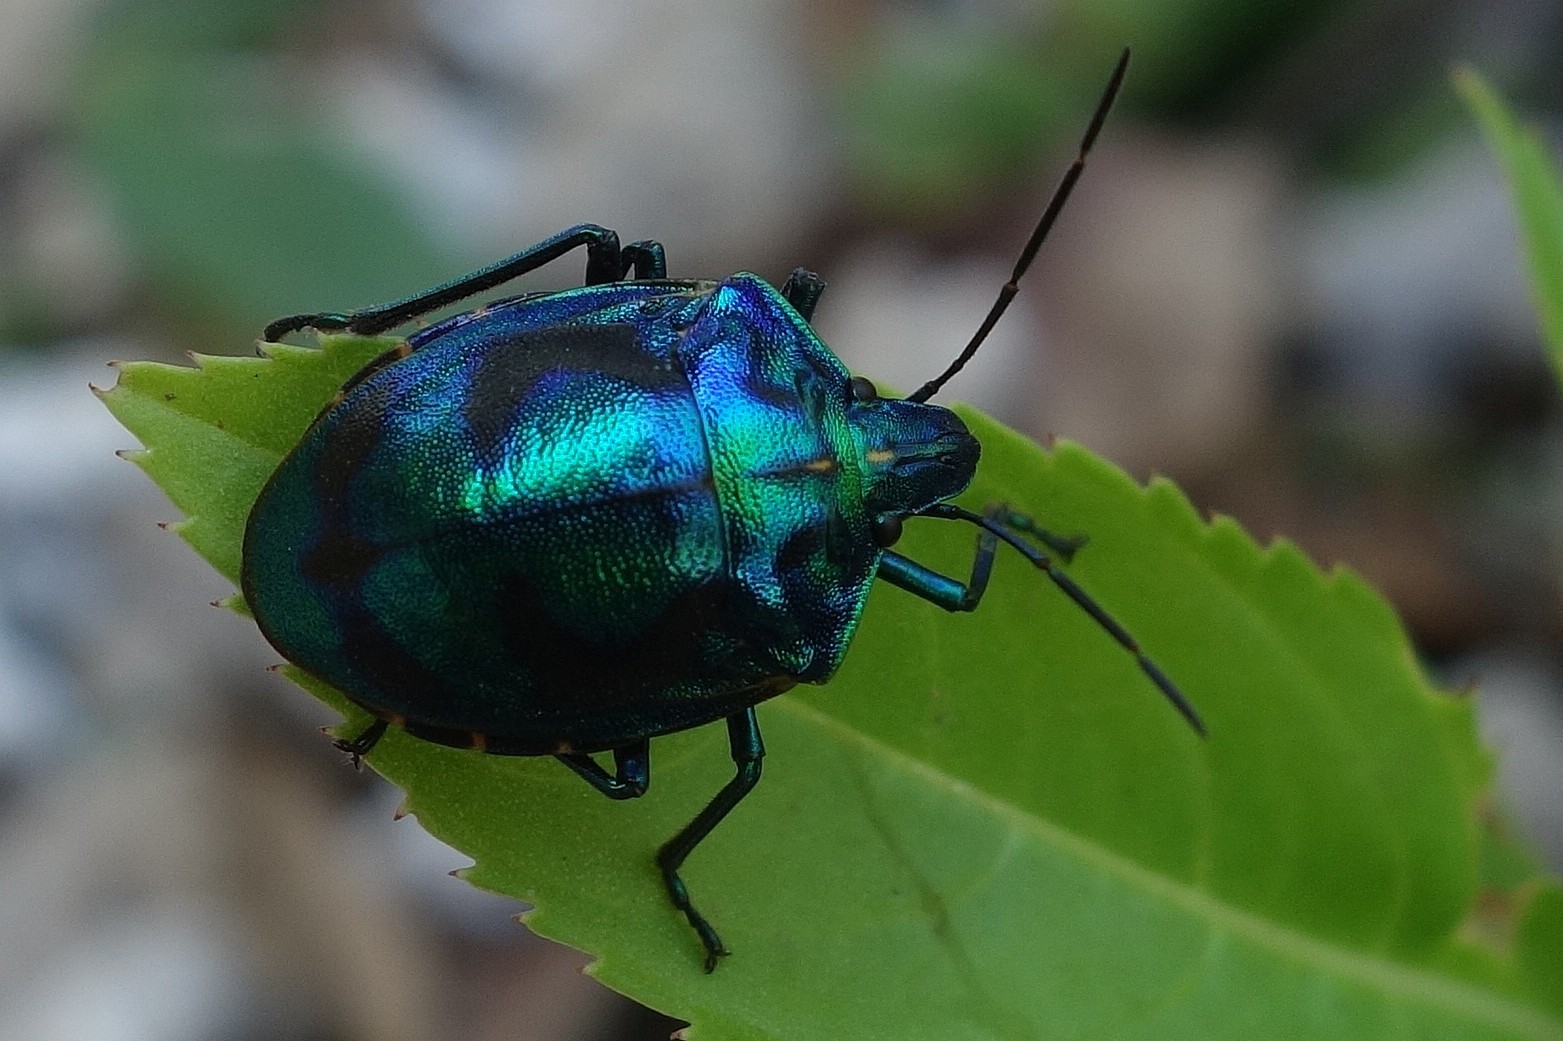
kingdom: Animalia
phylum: Arthropoda
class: Insecta
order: Hemiptera
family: Scutelleridae
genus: Tectocoris
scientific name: Tectocoris diophthalmus
